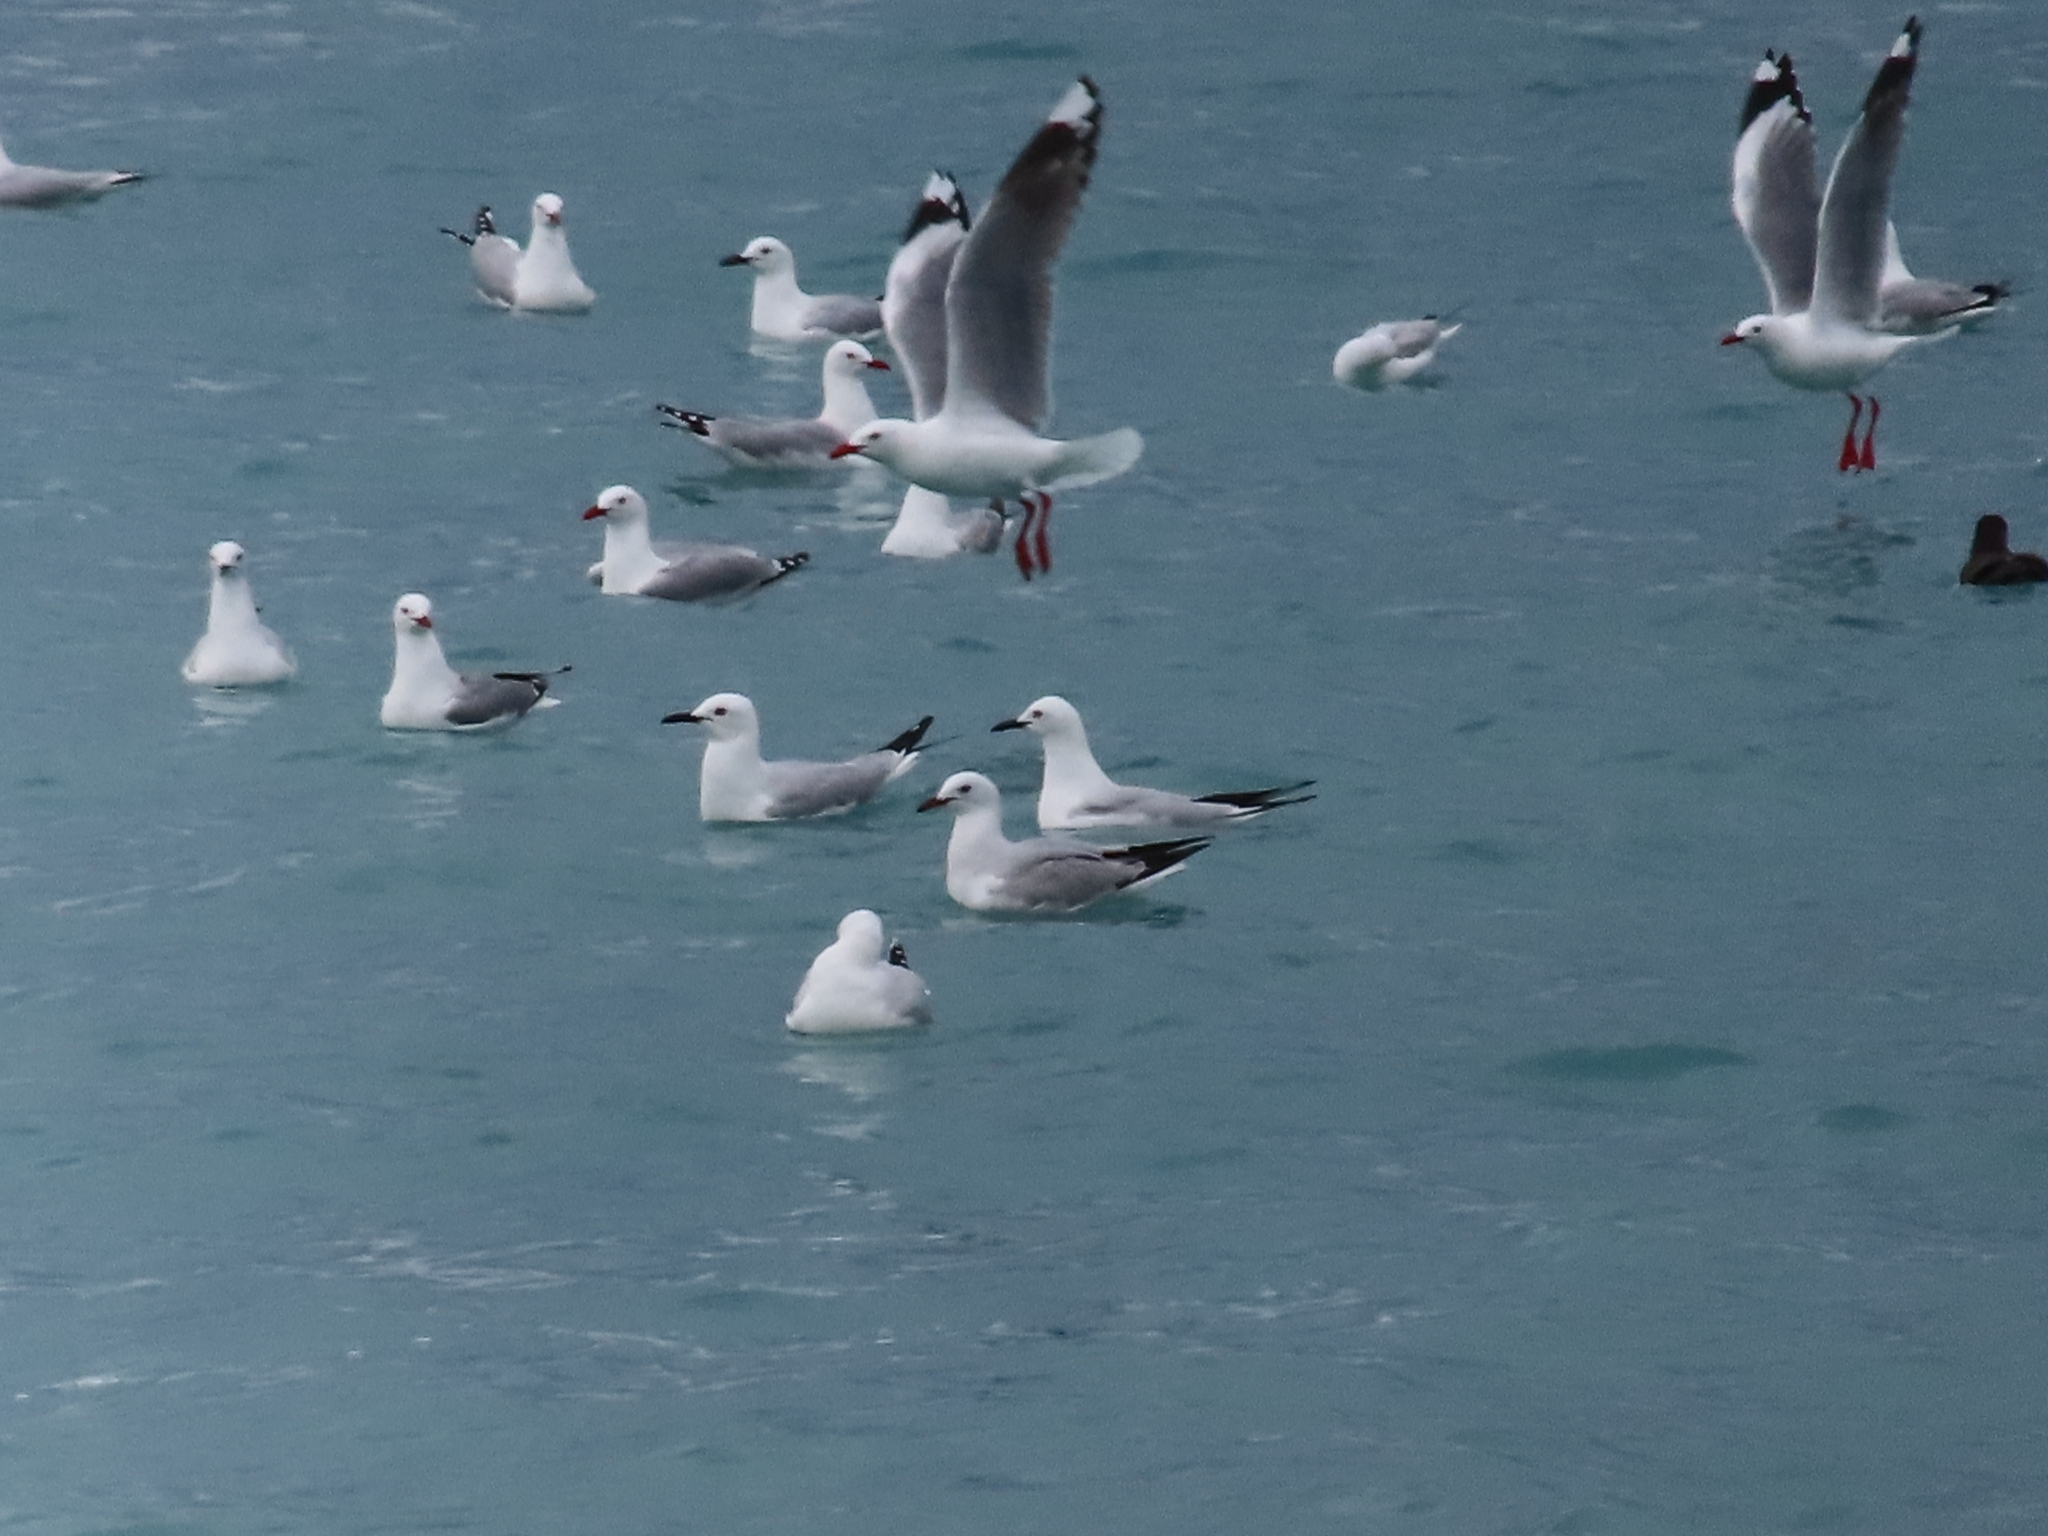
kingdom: Animalia
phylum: Chordata
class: Aves
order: Charadriiformes
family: Laridae
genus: Chroicocephalus
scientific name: Chroicocephalus novaehollandiae
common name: Silver gull
